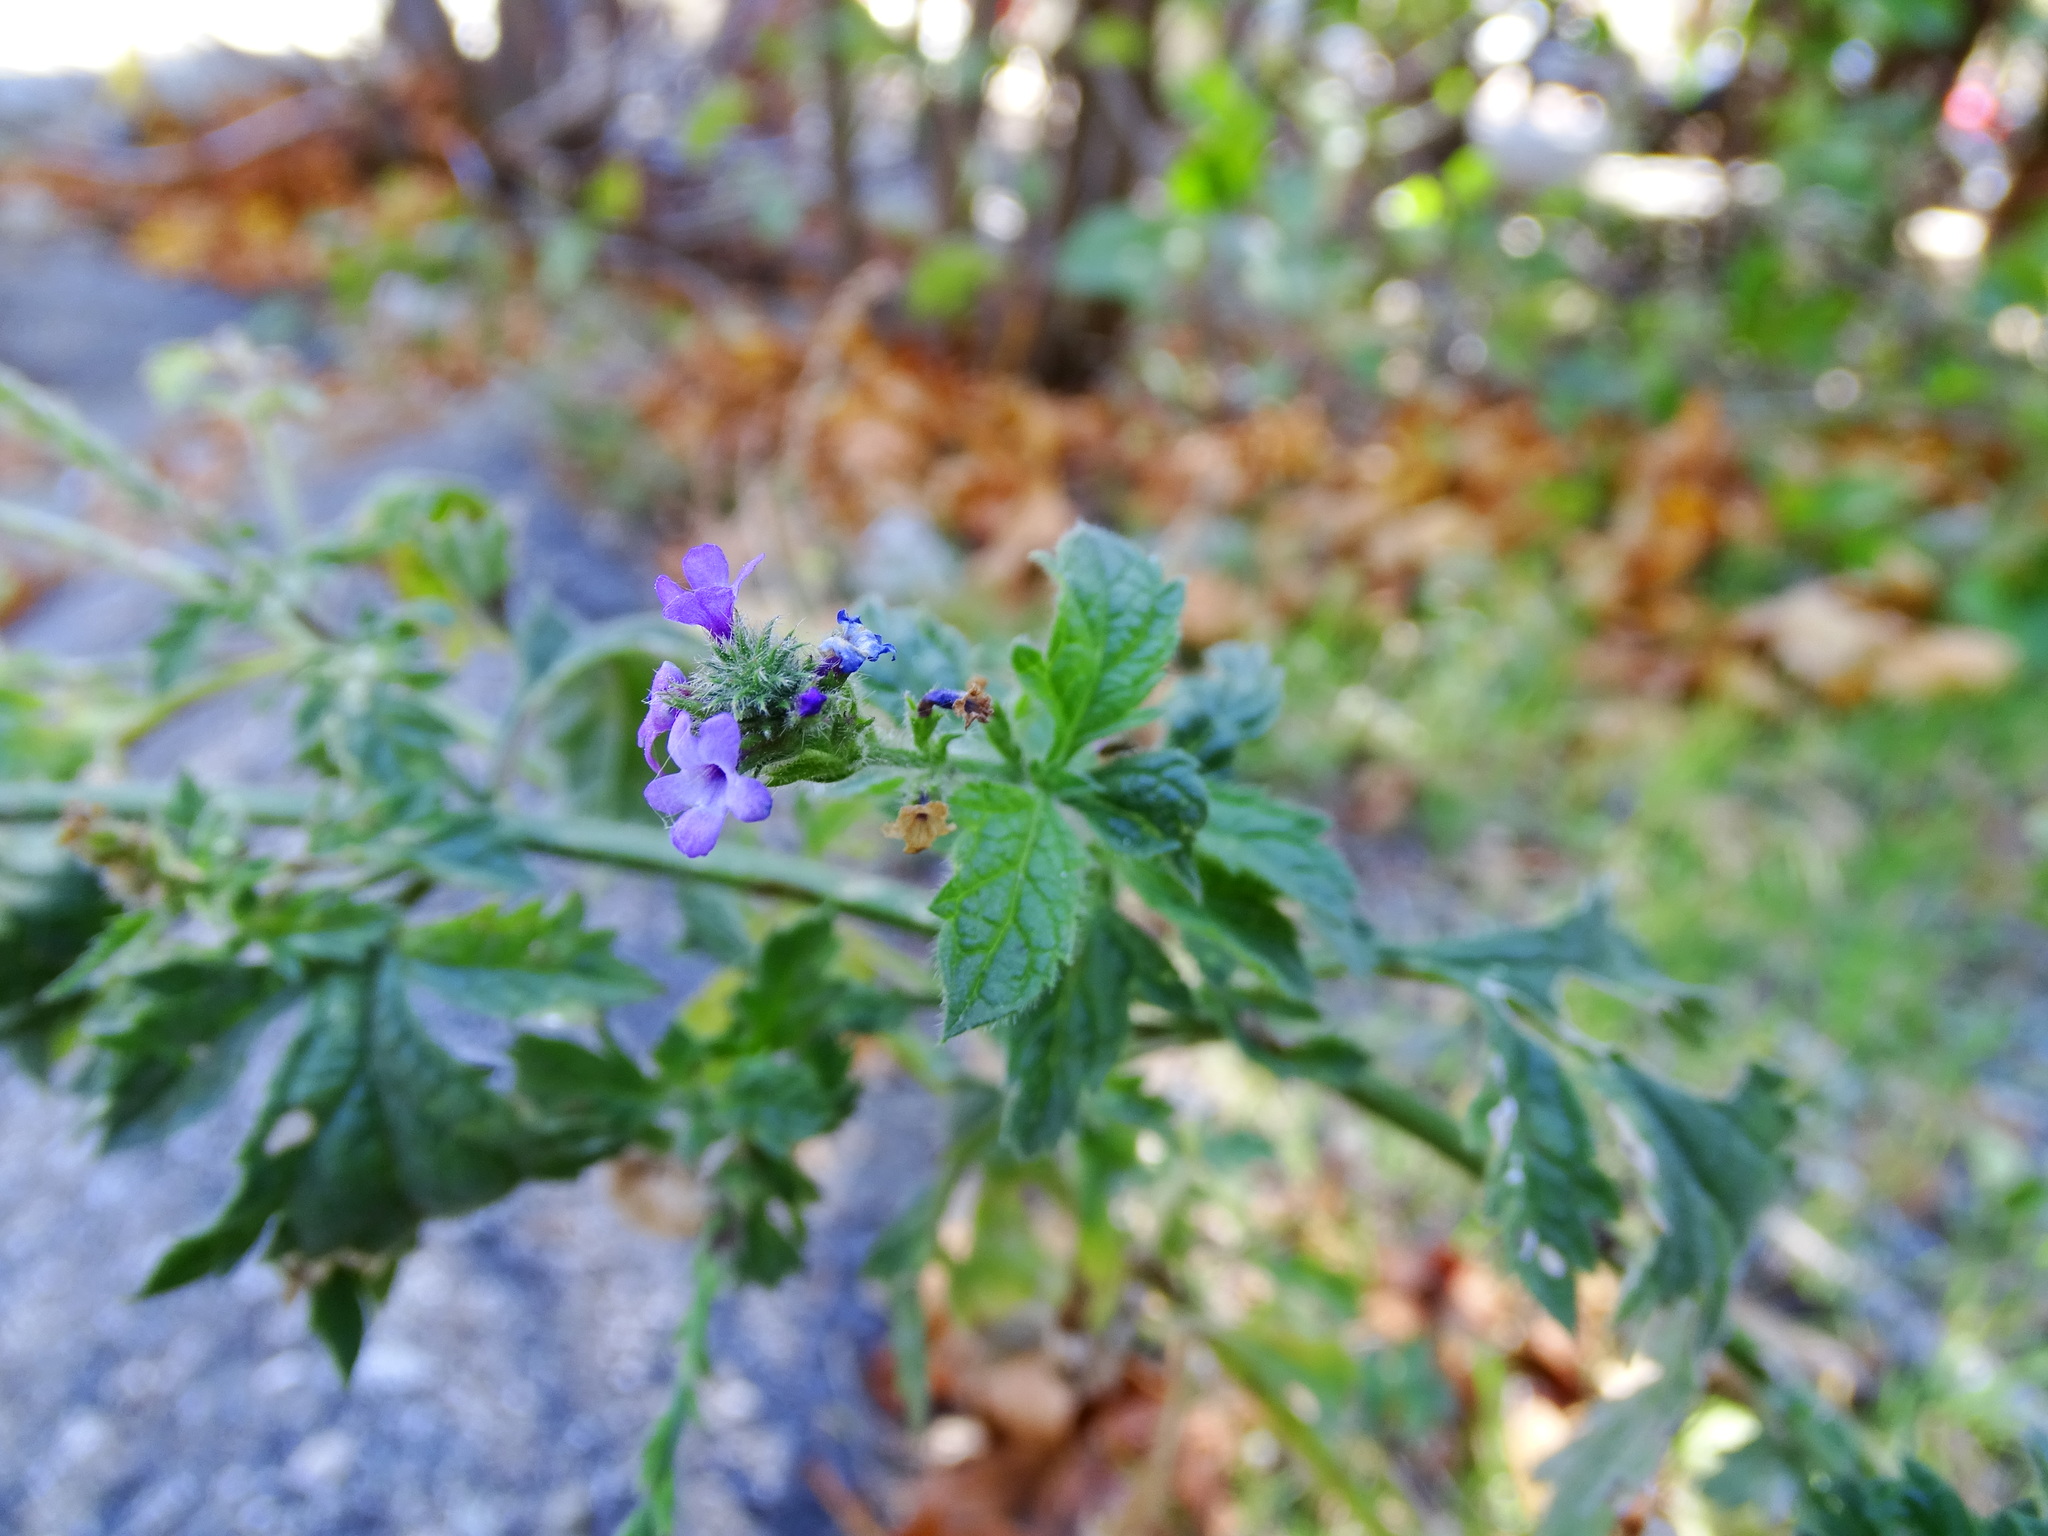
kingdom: Plantae
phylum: Tracheophyta
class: Magnoliopsida
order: Lamiales
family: Verbenaceae
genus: Verbena
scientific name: Verbena lasiostachys
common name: Vervain
